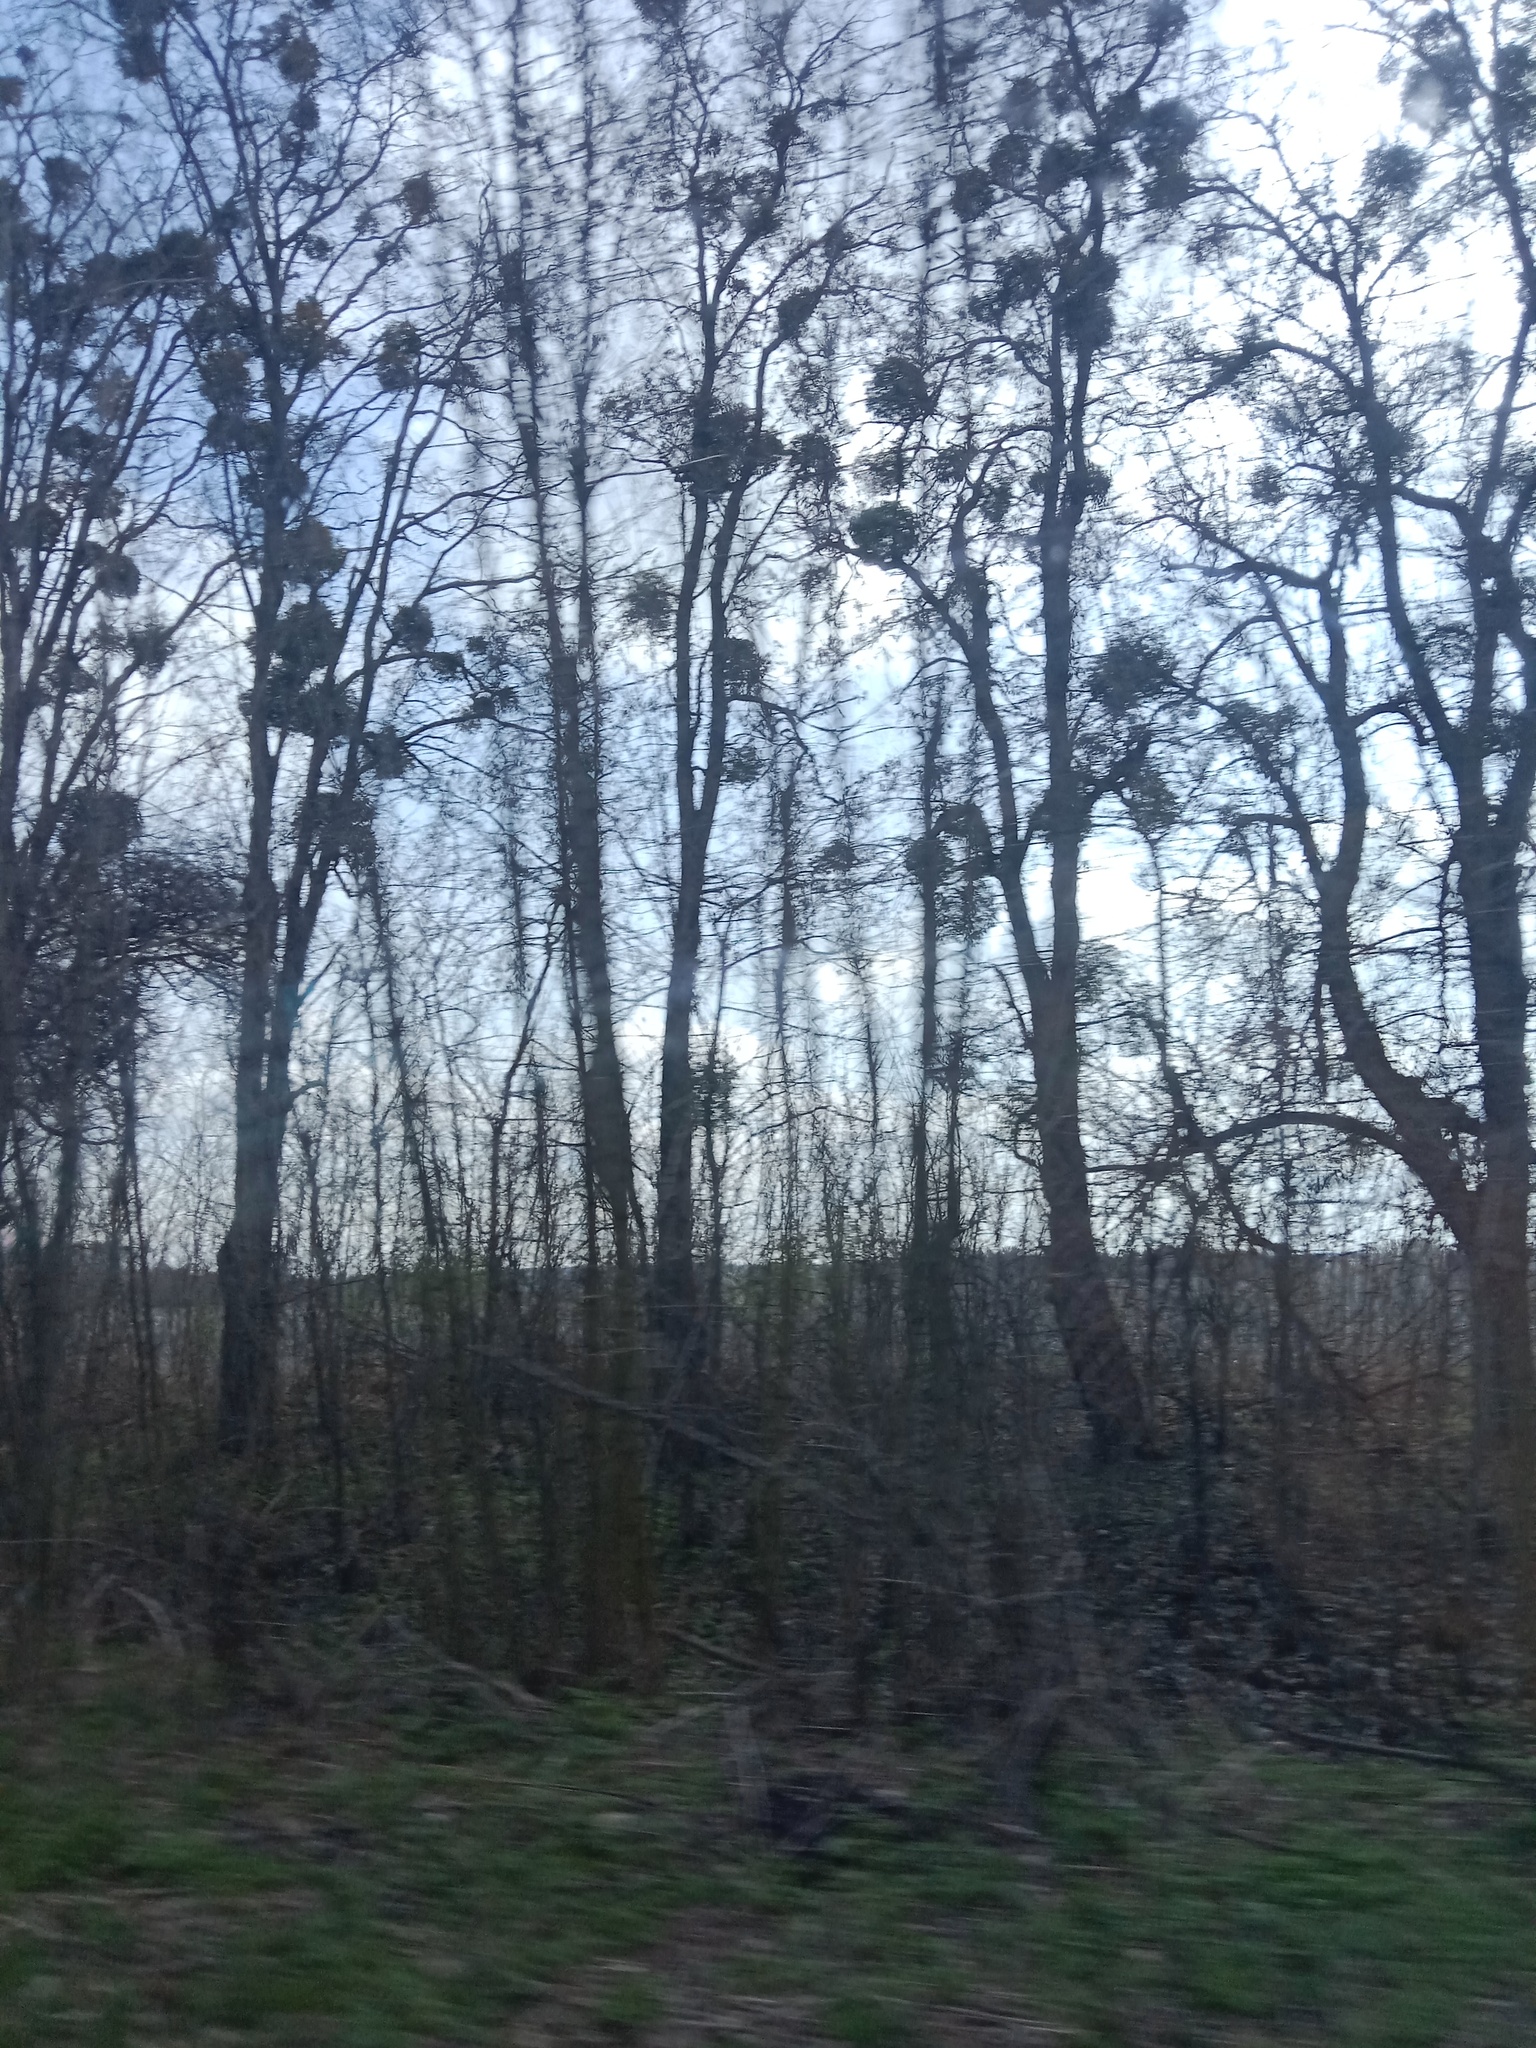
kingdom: Plantae
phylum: Tracheophyta
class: Magnoliopsida
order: Santalales
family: Viscaceae
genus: Viscum
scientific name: Viscum album
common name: Mistletoe
